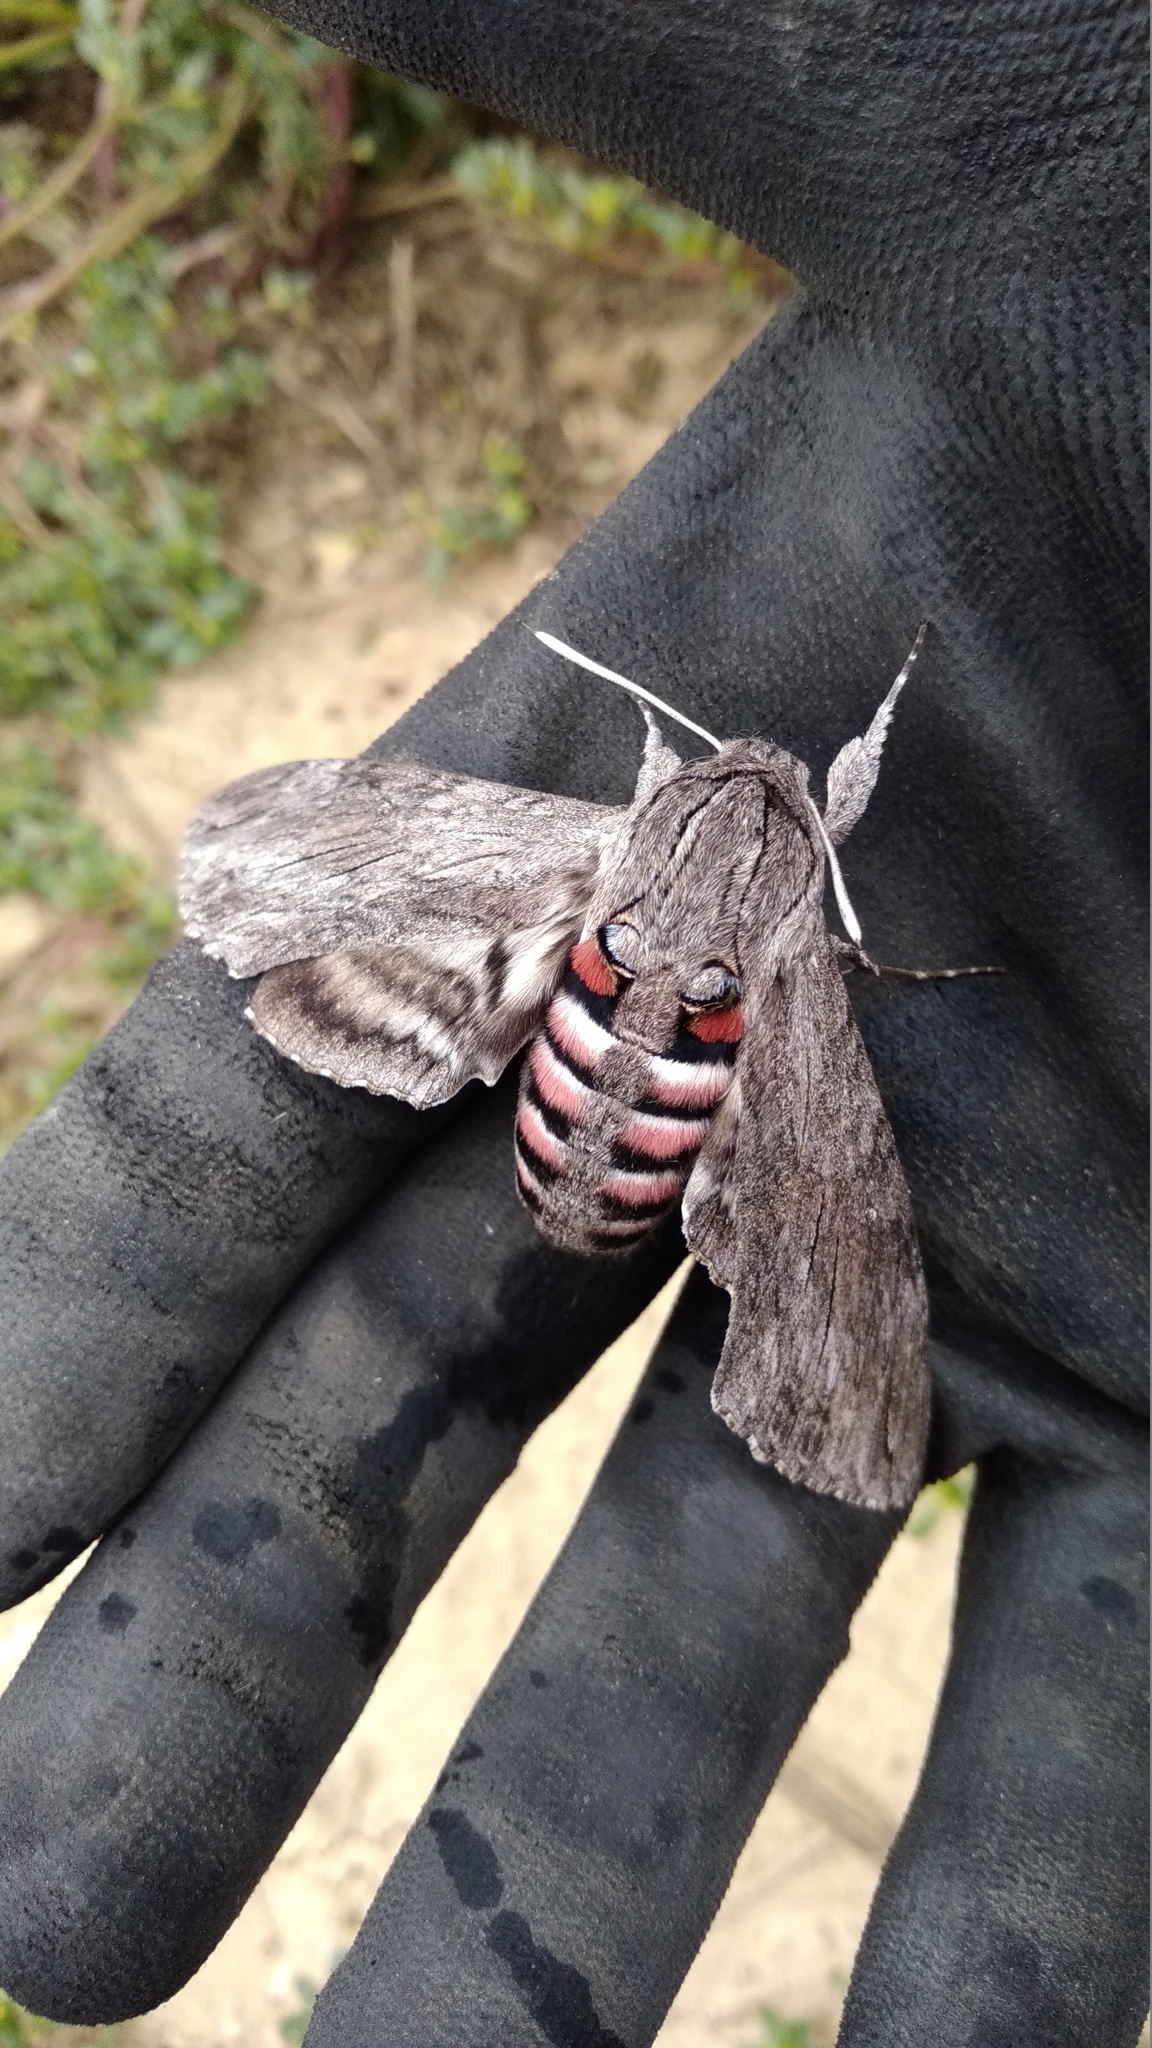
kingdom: Animalia
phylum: Arthropoda
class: Insecta
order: Lepidoptera
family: Sphingidae
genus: Agrius
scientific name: Agrius convolvuli
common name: Convolvulus hawkmoth
